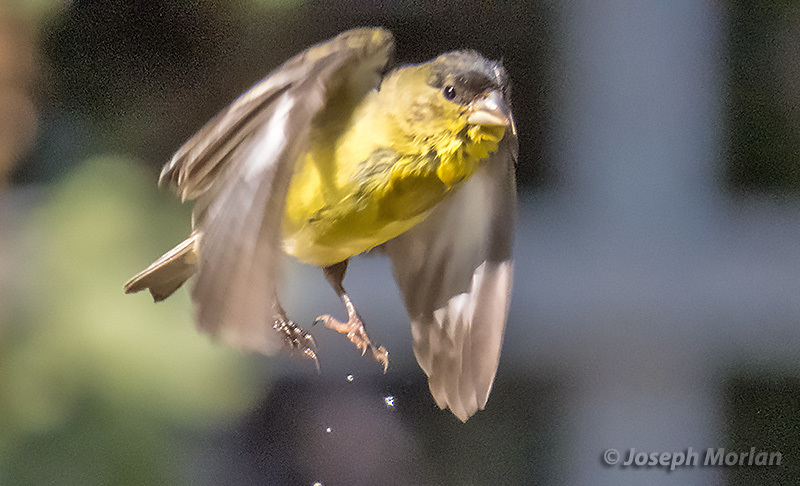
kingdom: Animalia
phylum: Chordata
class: Aves
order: Passeriformes
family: Fringillidae
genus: Spinus
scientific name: Spinus psaltria
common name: Lesser goldfinch
